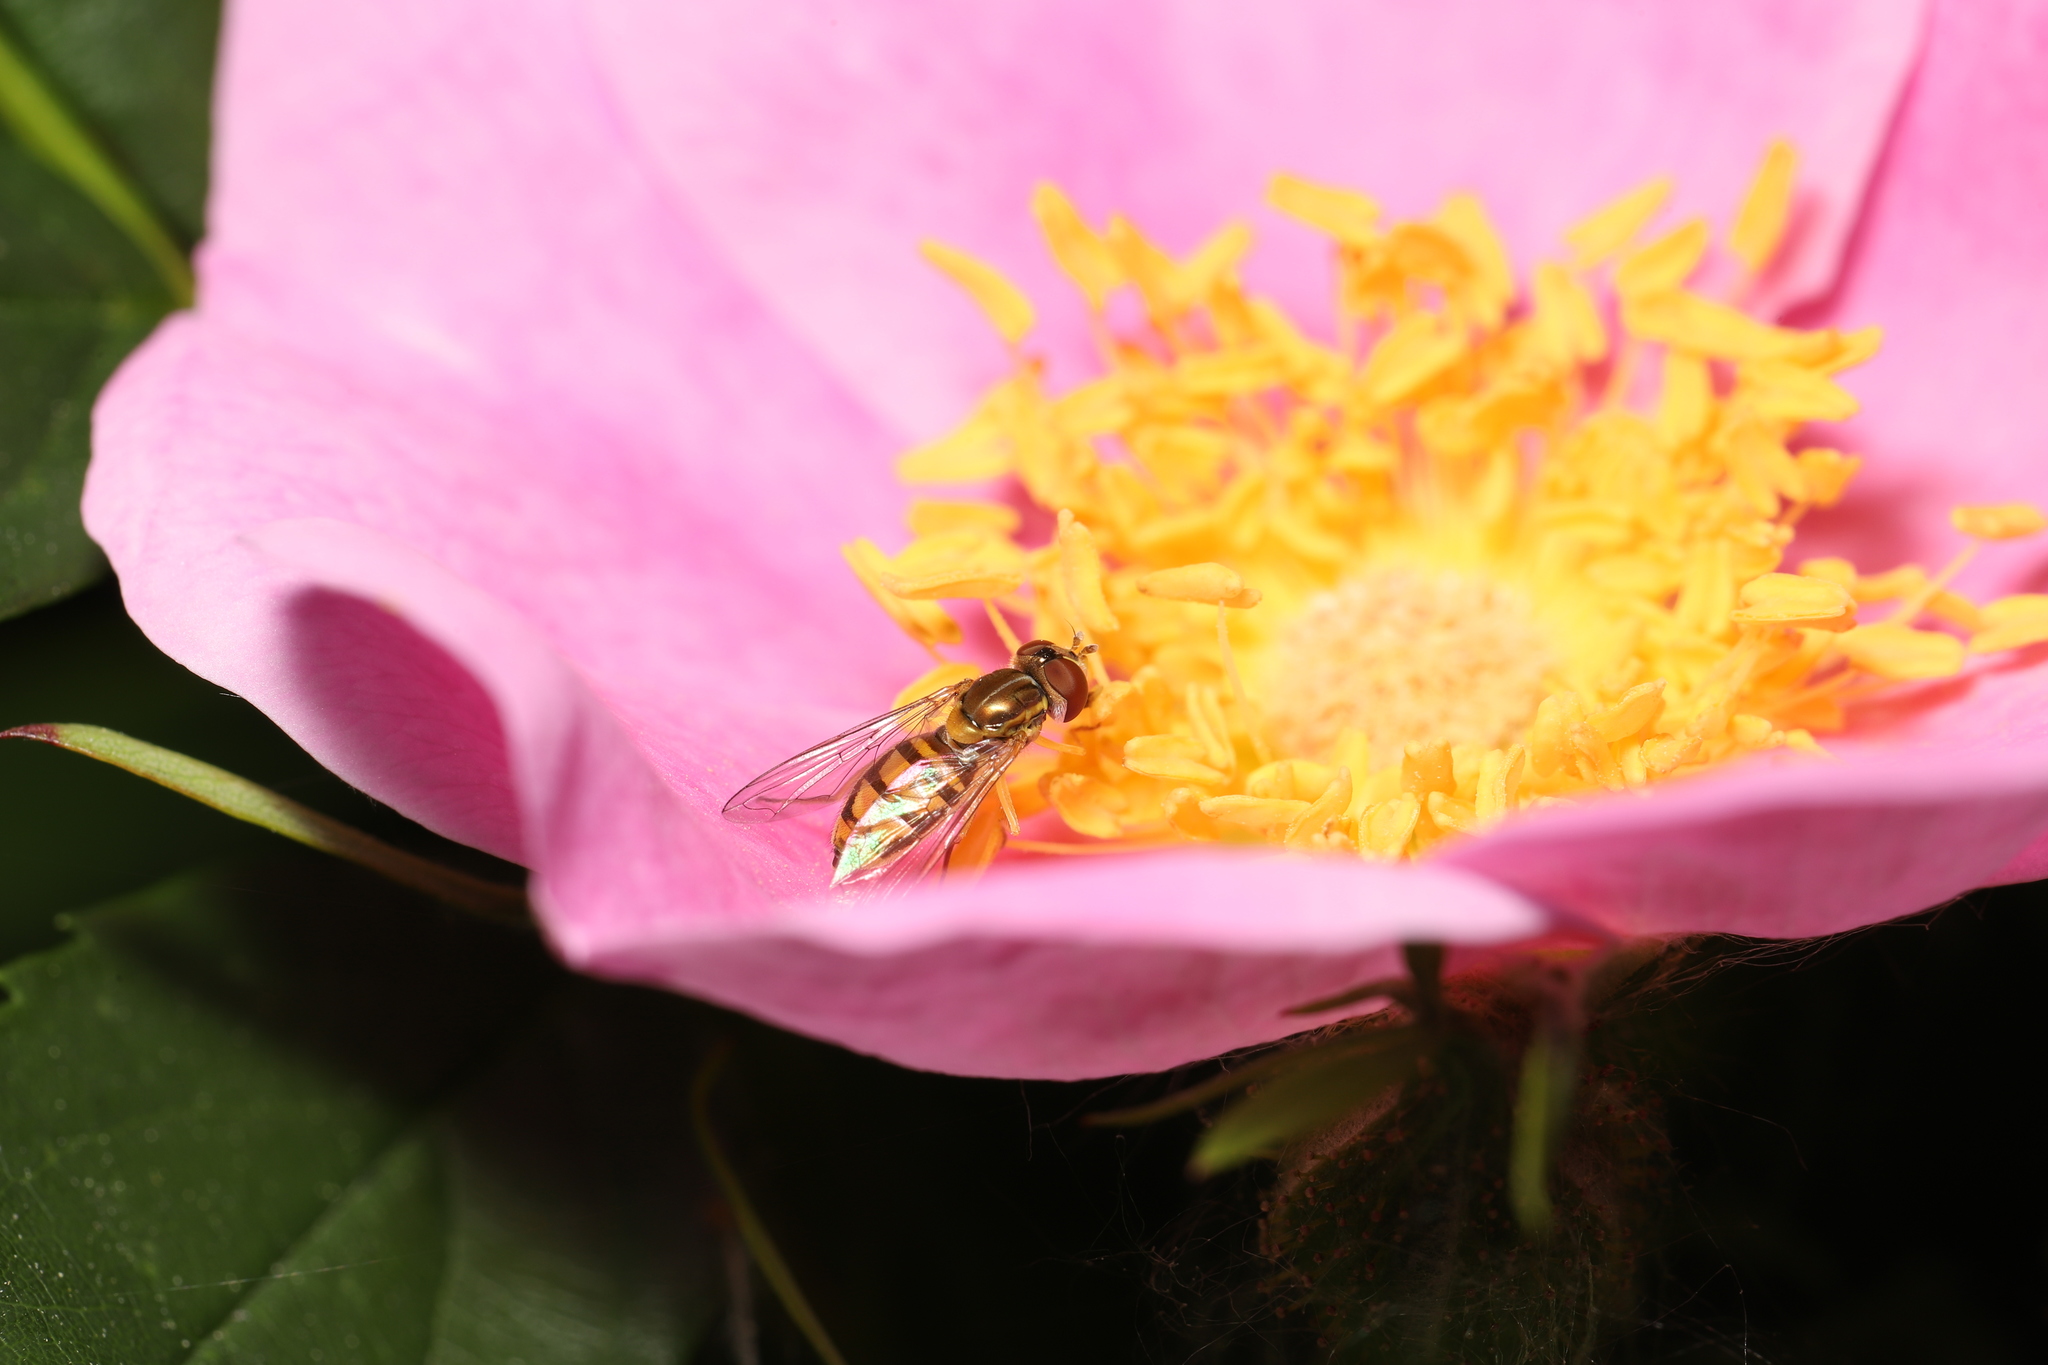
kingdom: Animalia
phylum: Arthropoda
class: Insecta
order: Diptera
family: Syrphidae
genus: Toxomerus
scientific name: Toxomerus marginatus
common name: Syrphid fly
